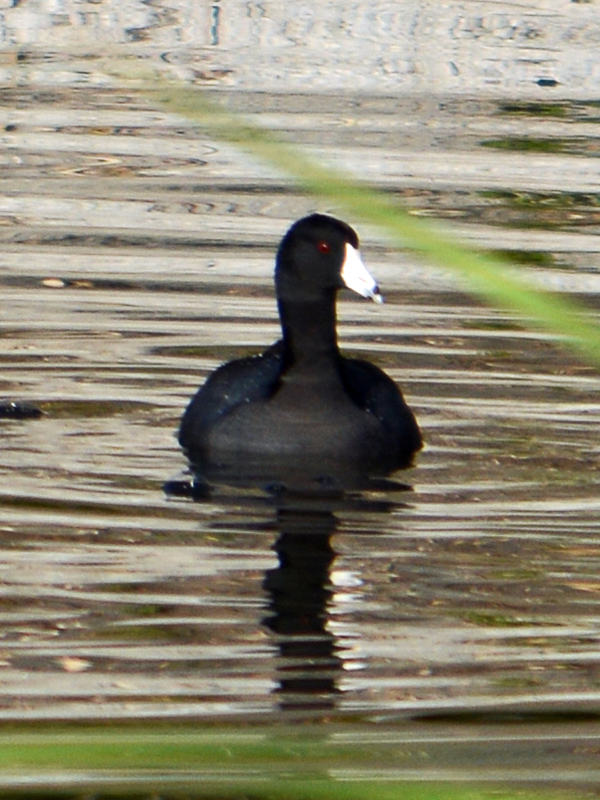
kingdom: Animalia
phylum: Chordata
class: Aves
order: Gruiformes
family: Rallidae
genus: Fulica
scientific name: Fulica americana
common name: American coot
